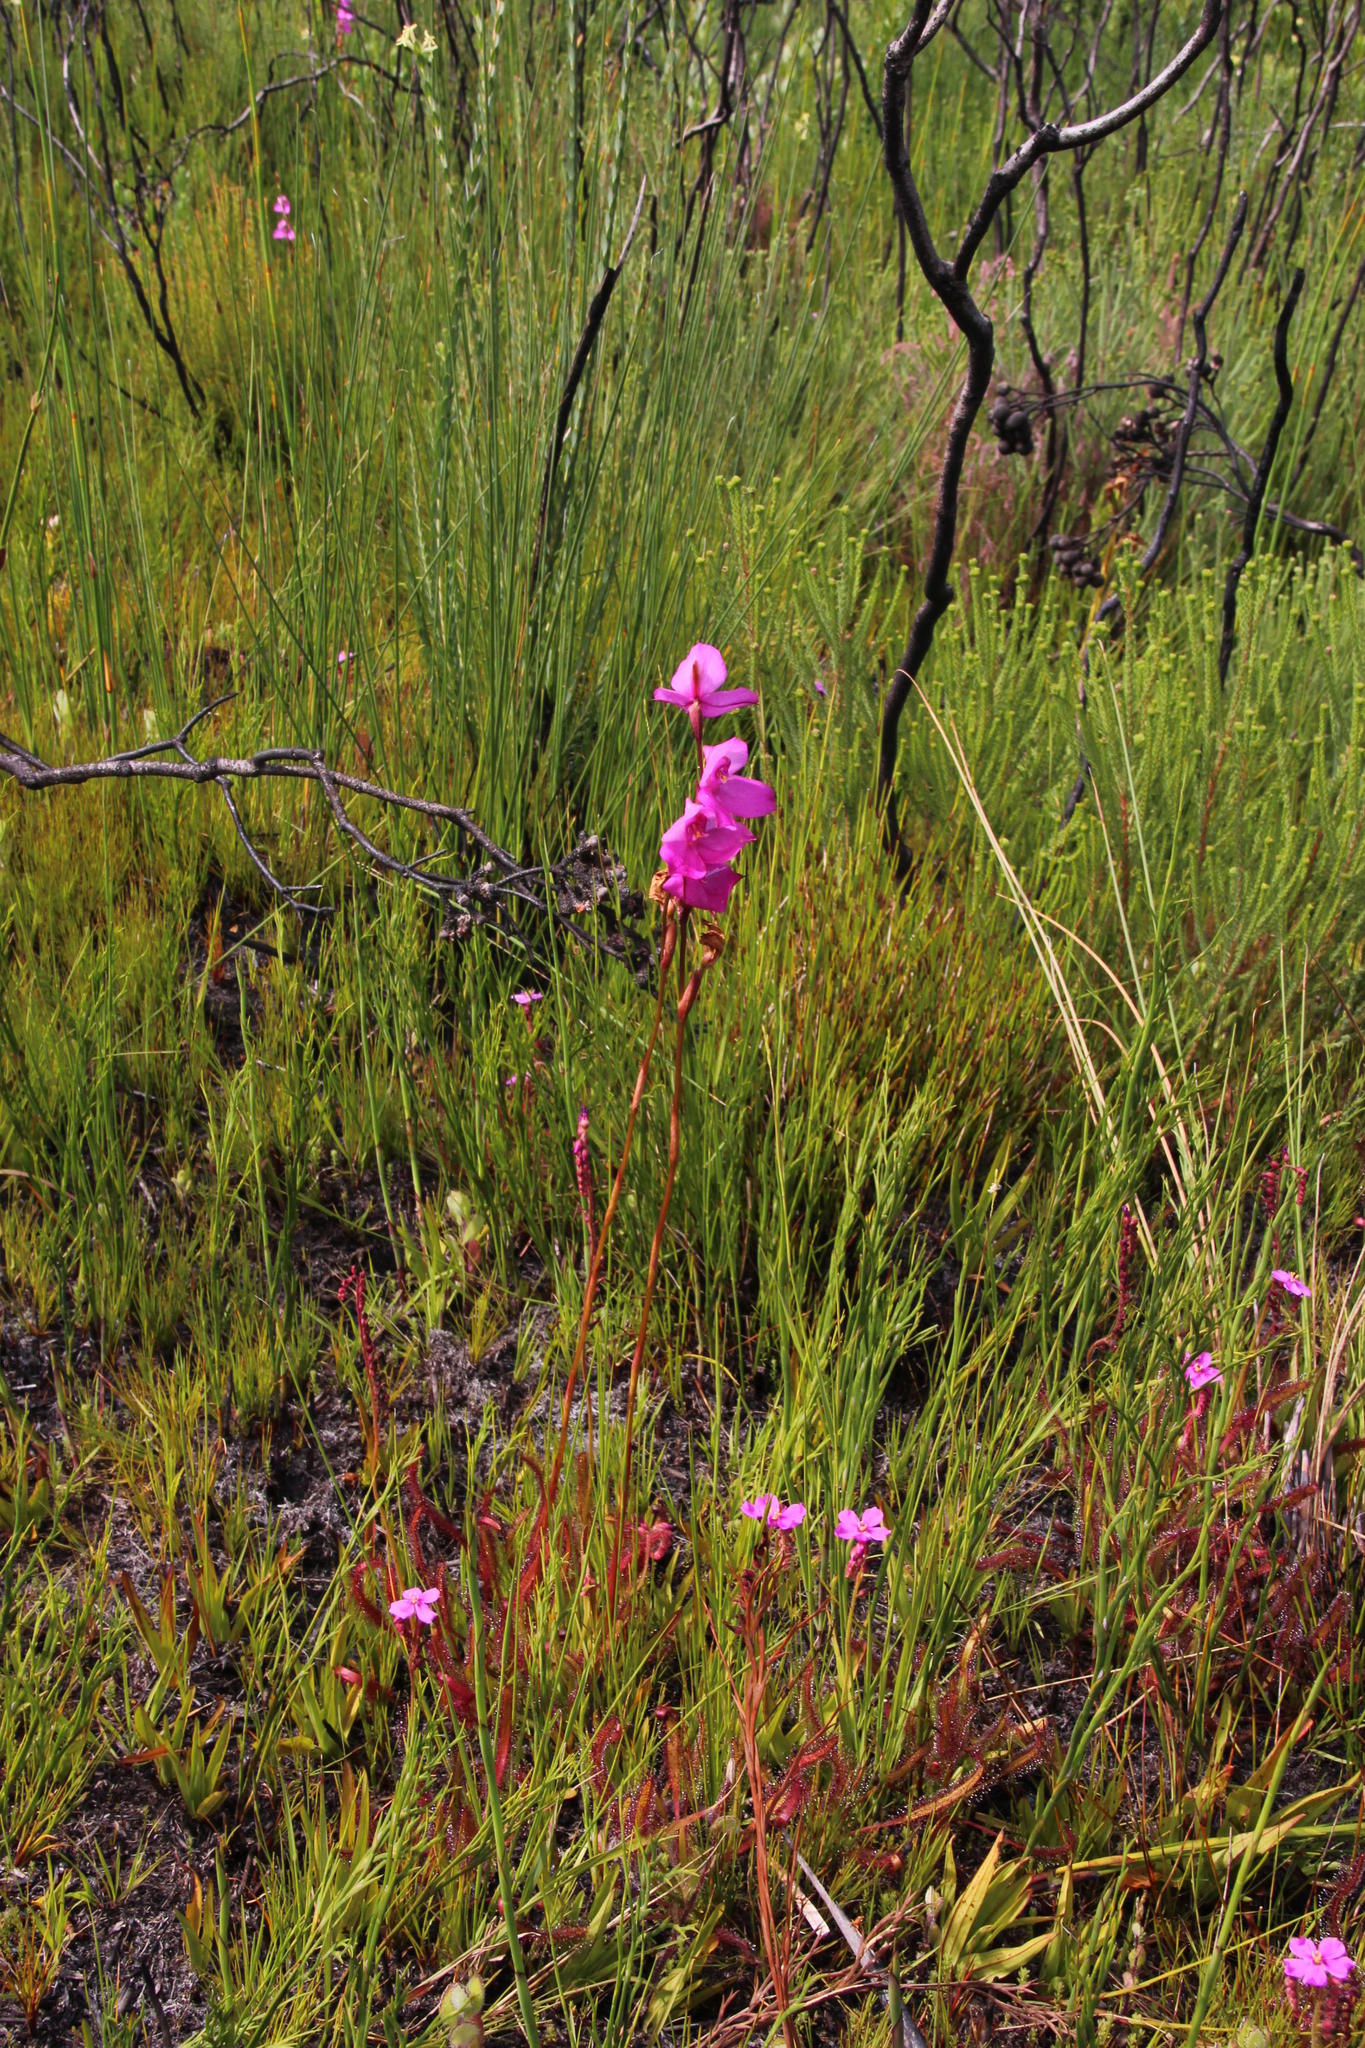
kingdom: Plantae
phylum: Tracheophyta
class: Liliopsida
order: Asparagales
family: Orchidaceae
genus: Disa
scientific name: Disa racemosa
